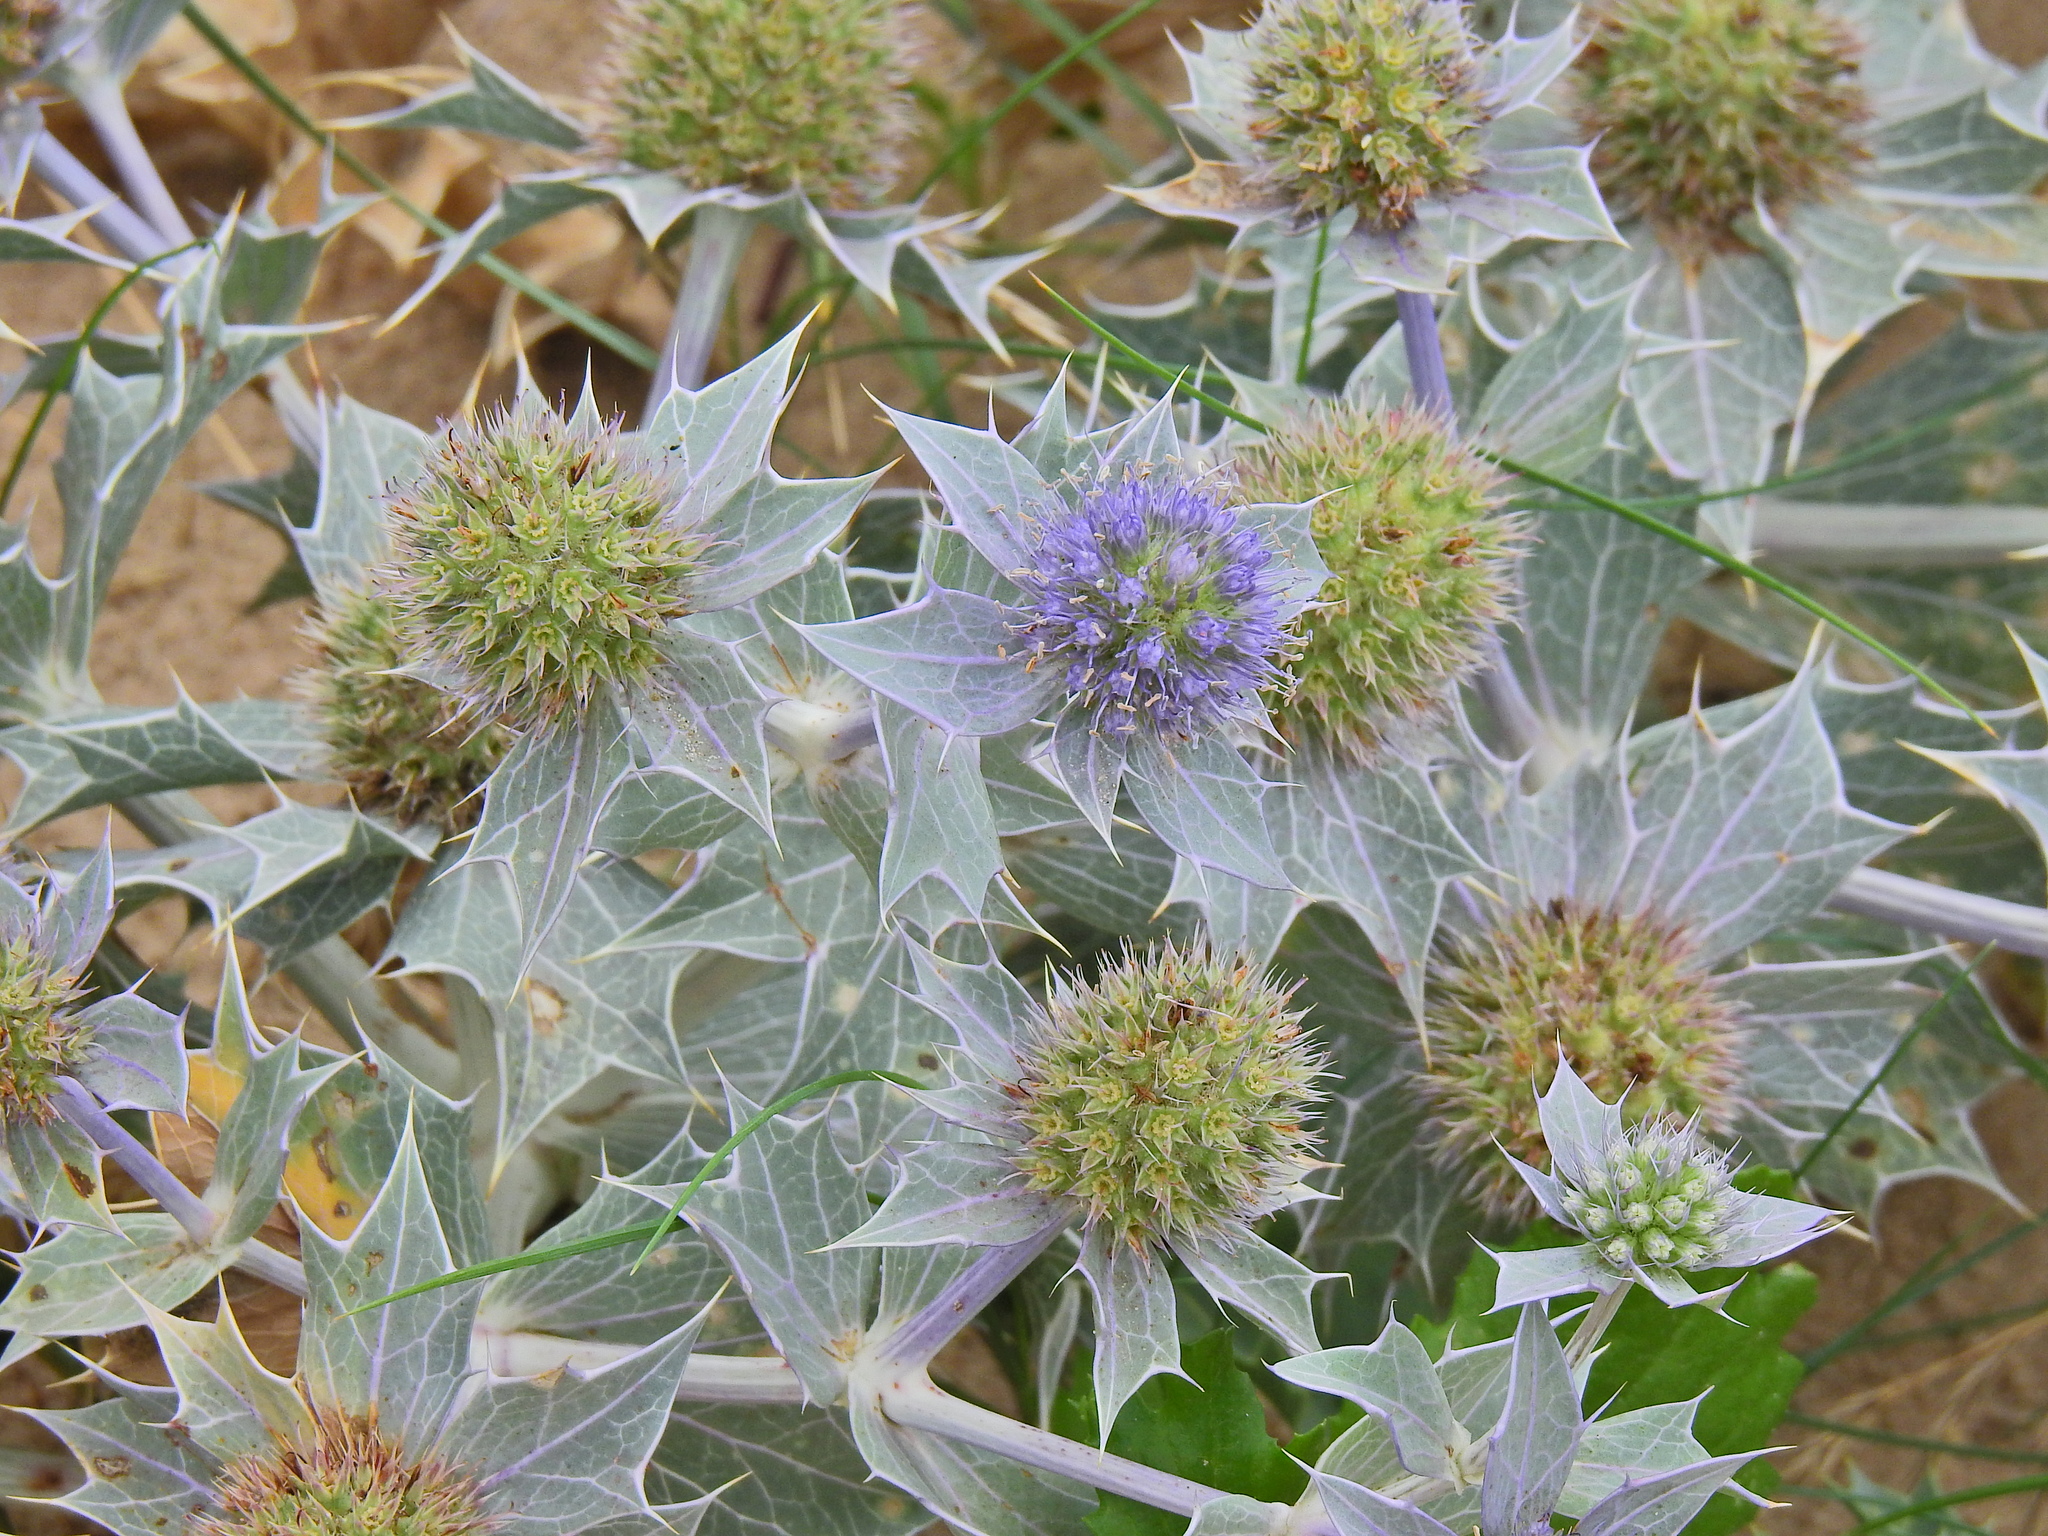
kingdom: Plantae
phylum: Tracheophyta
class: Magnoliopsida
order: Apiales
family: Apiaceae
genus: Eryngium
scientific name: Eryngium maritimum
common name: Sea-holly
